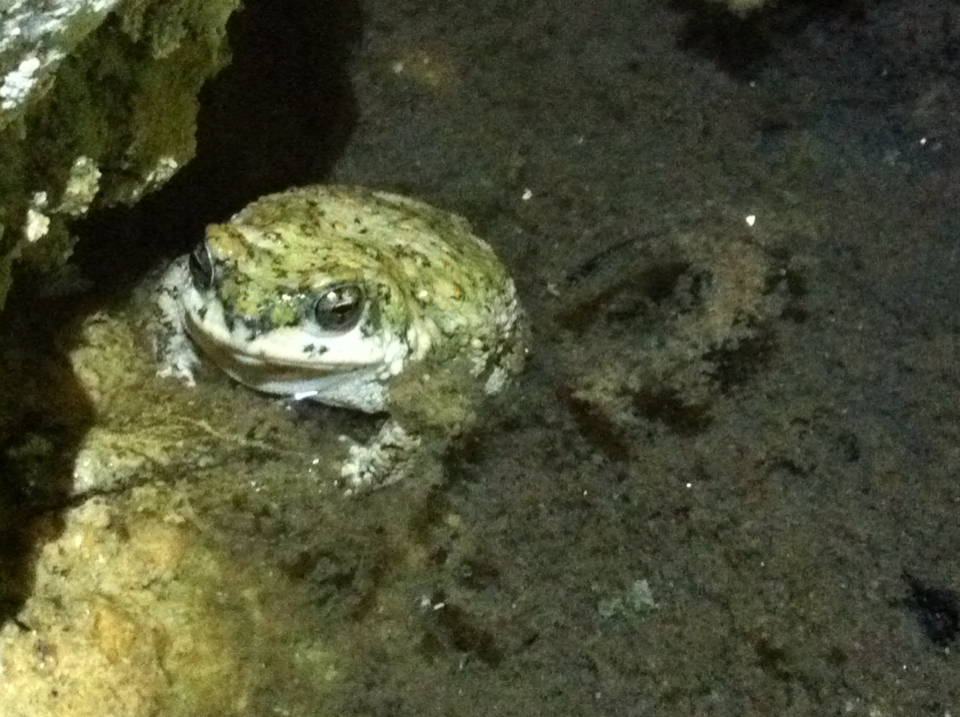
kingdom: Animalia
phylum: Chordata
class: Amphibia
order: Anura
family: Bufonidae
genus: Anaxyrus
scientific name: Anaxyrus punctatus
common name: Red-spotted toad
